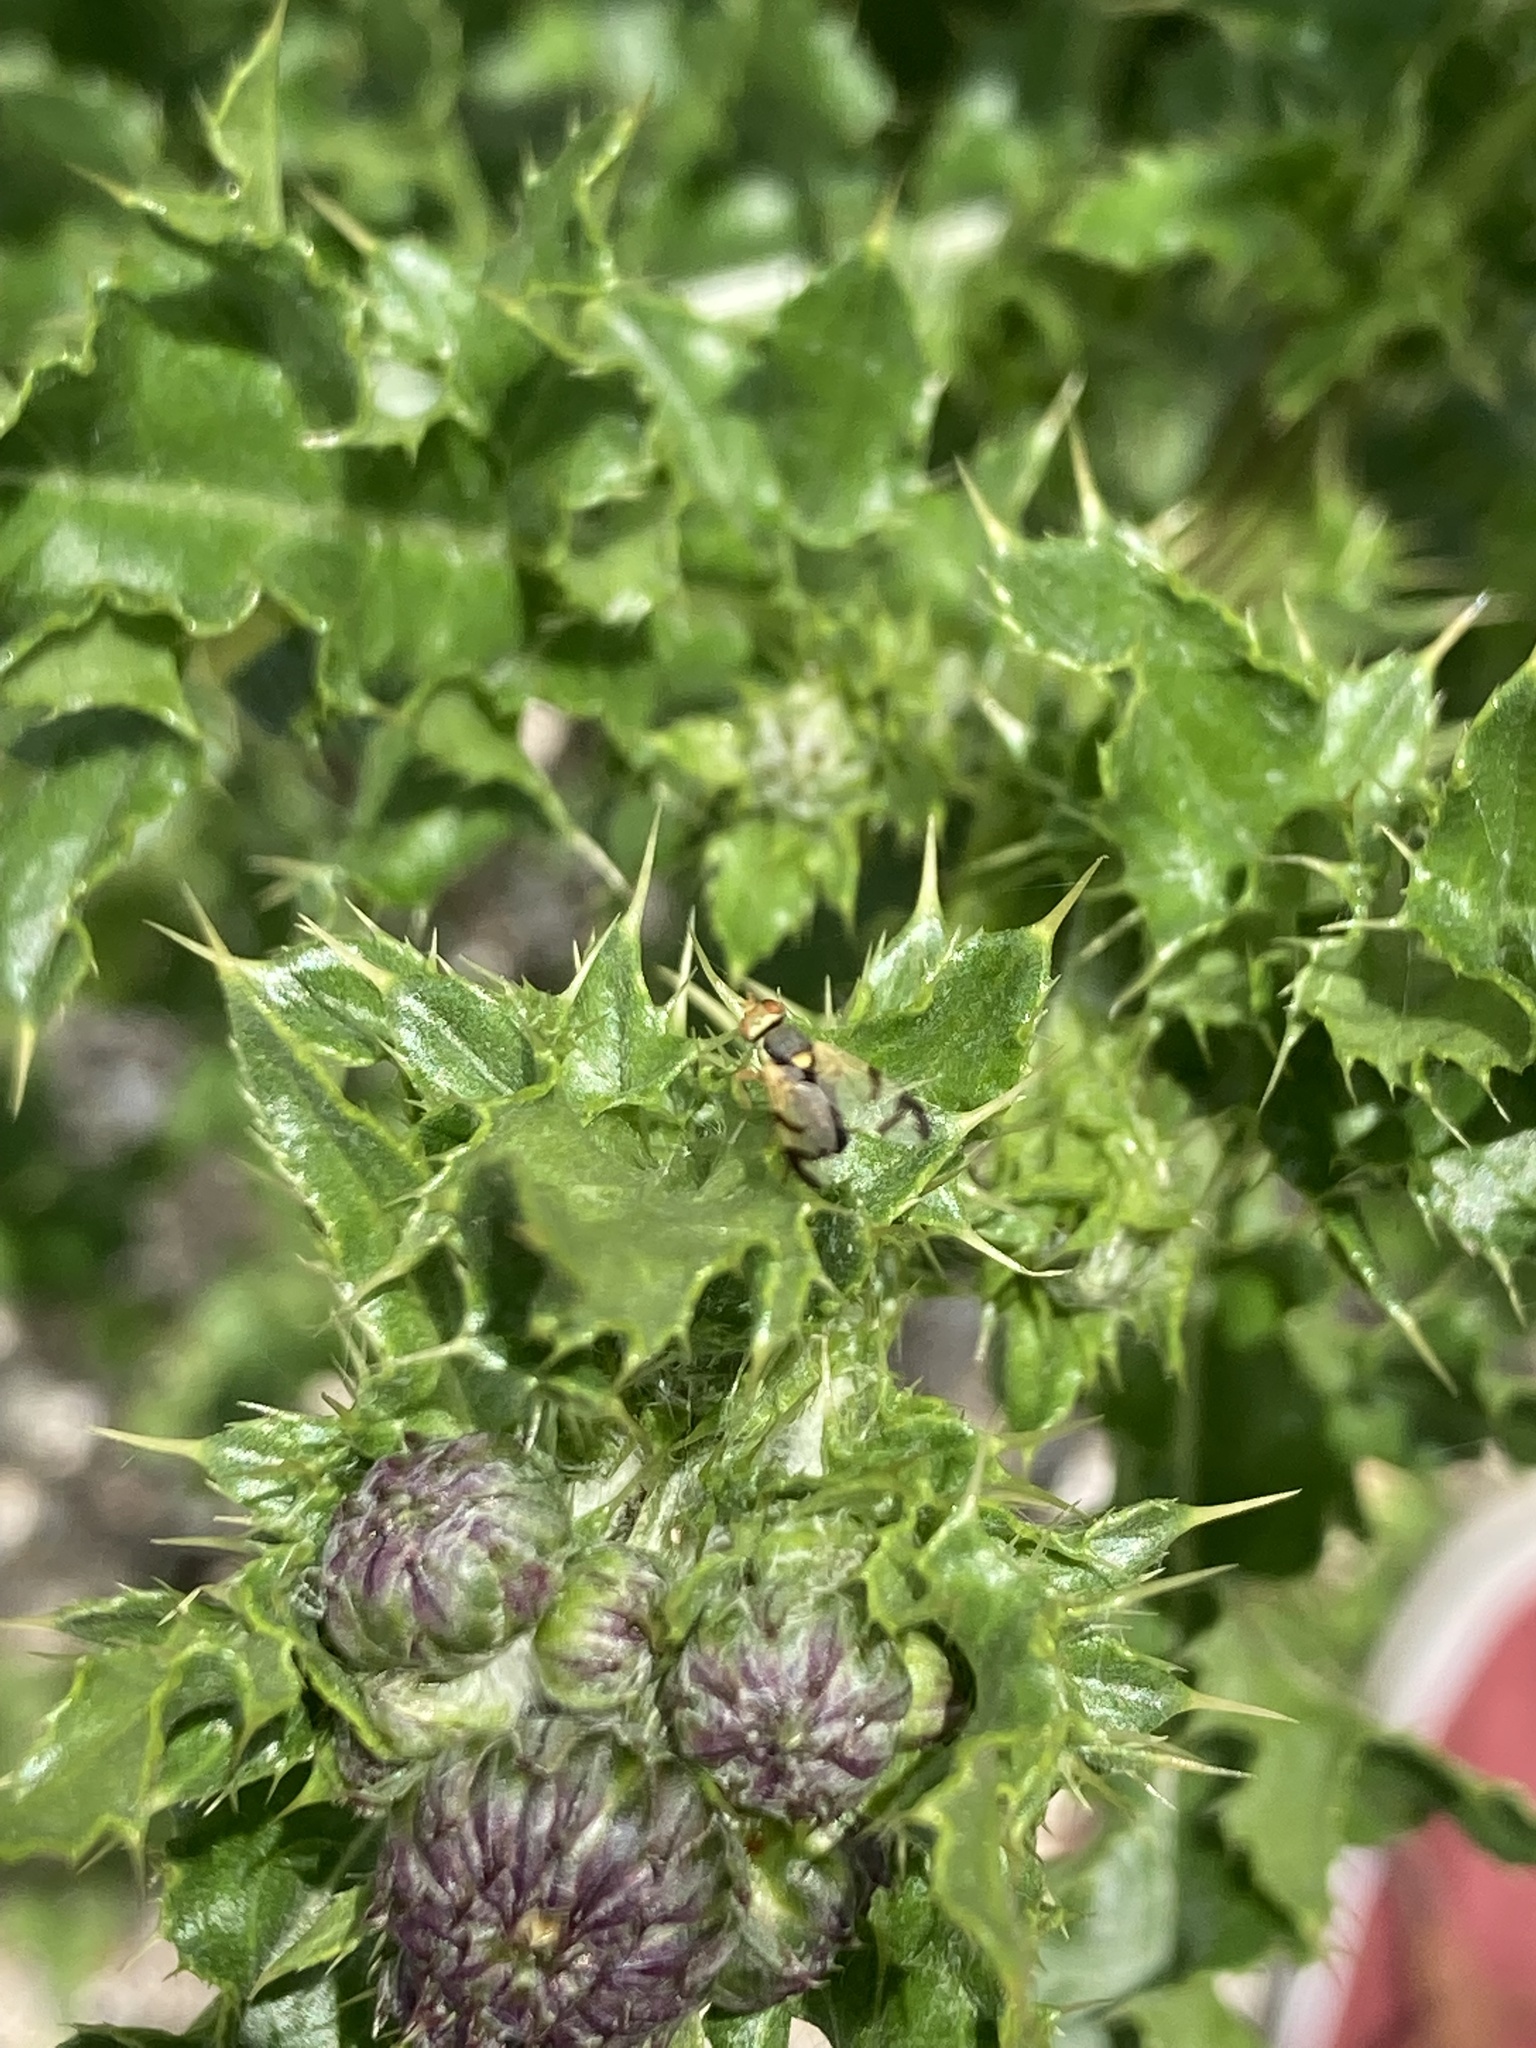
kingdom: Animalia
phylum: Arthropoda
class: Insecta
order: Diptera
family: Tephritidae
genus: Urophora
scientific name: Urophora stylata
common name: Fruit fly
